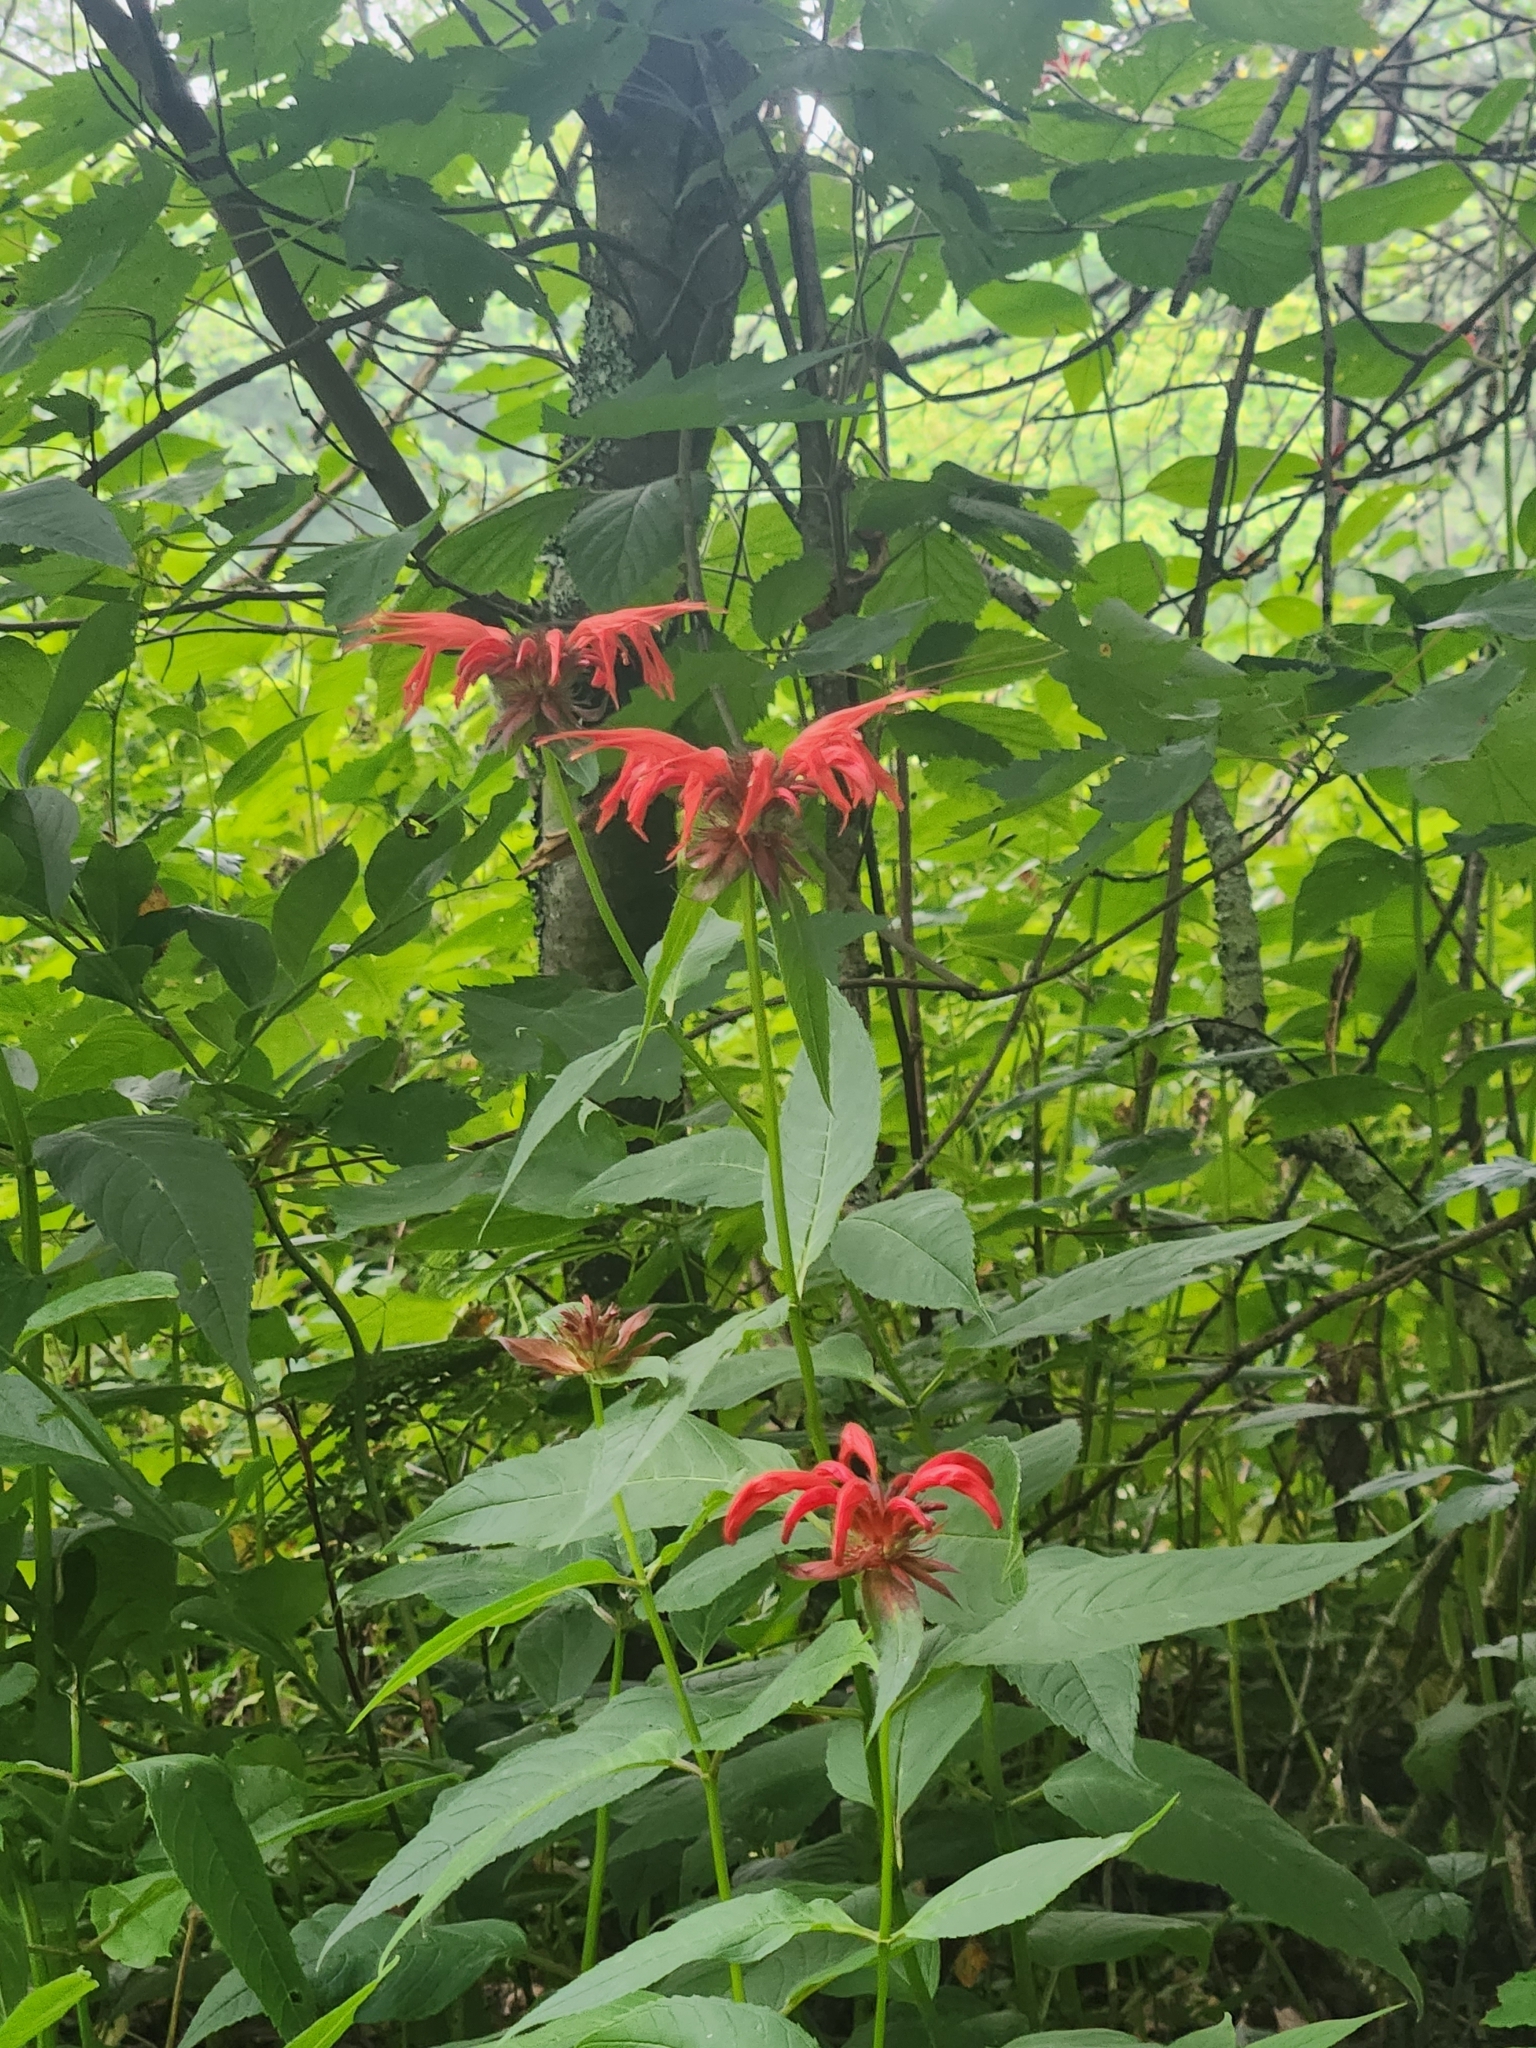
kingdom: Plantae
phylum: Tracheophyta
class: Magnoliopsida
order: Lamiales
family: Lamiaceae
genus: Monarda
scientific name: Monarda didyma
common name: Beebalm
